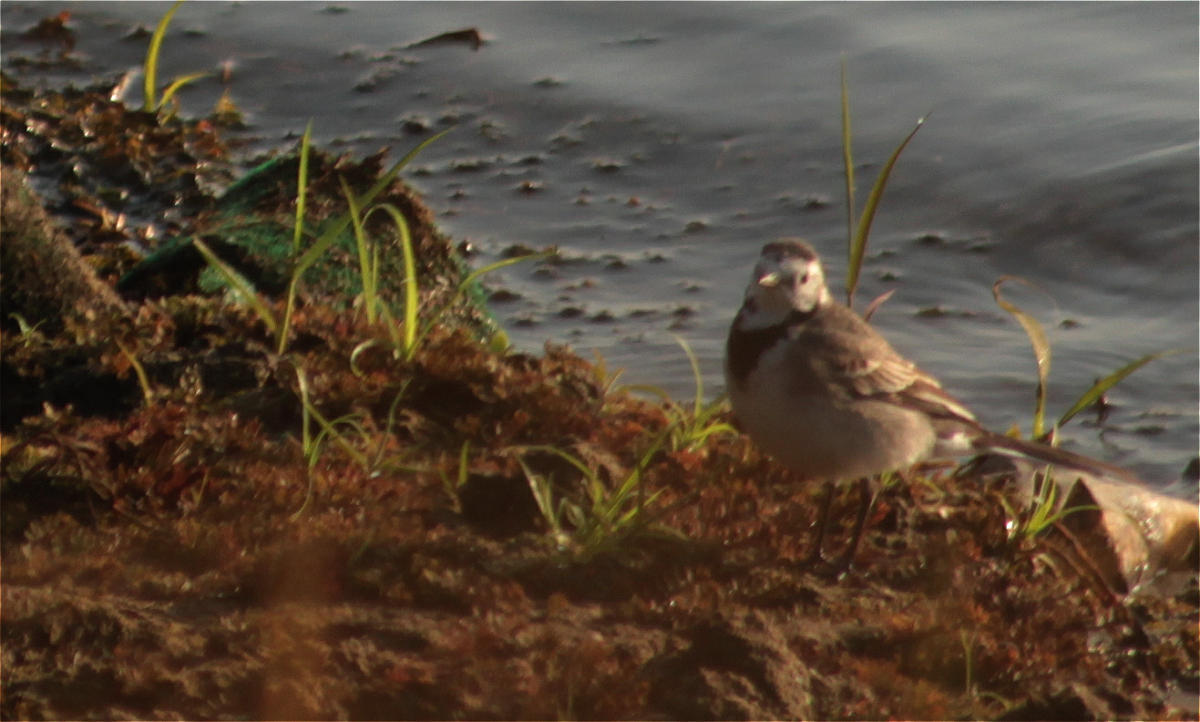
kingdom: Animalia
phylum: Chordata
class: Aves
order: Passeriformes
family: Motacillidae
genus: Motacilla
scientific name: Motacilla alba
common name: White wagtail
